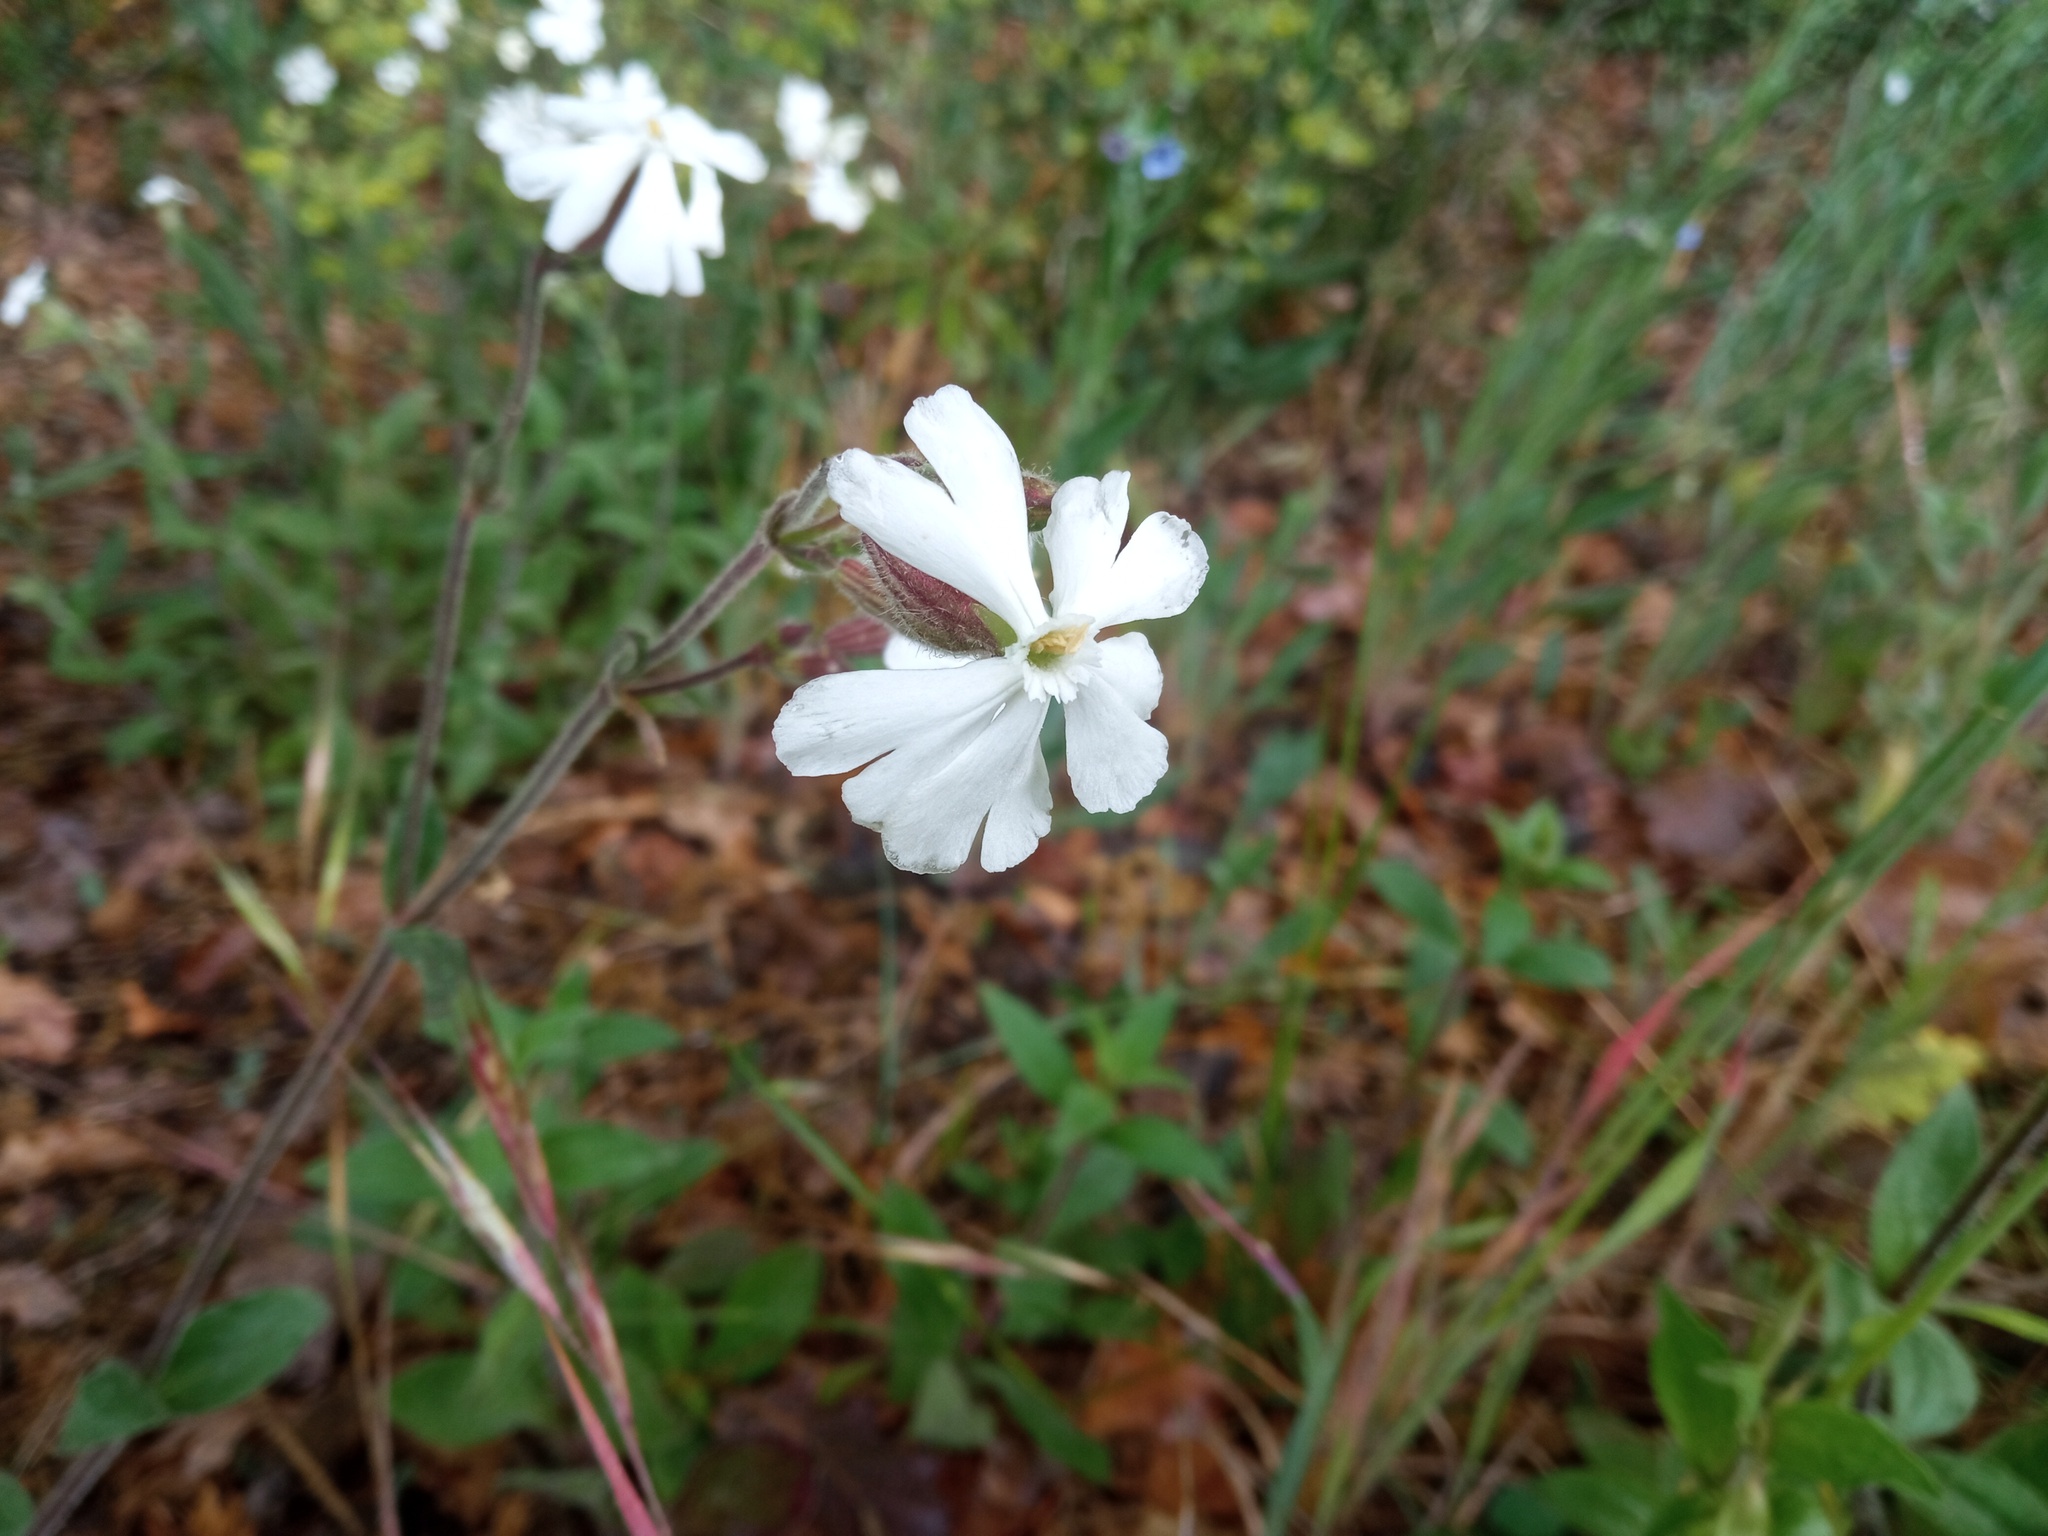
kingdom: Plantae
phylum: Tracheophyta
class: Magnoliopsida
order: Caryophyllales
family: Caryophyllaceae
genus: Silene
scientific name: Silene latifolia
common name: White campion
